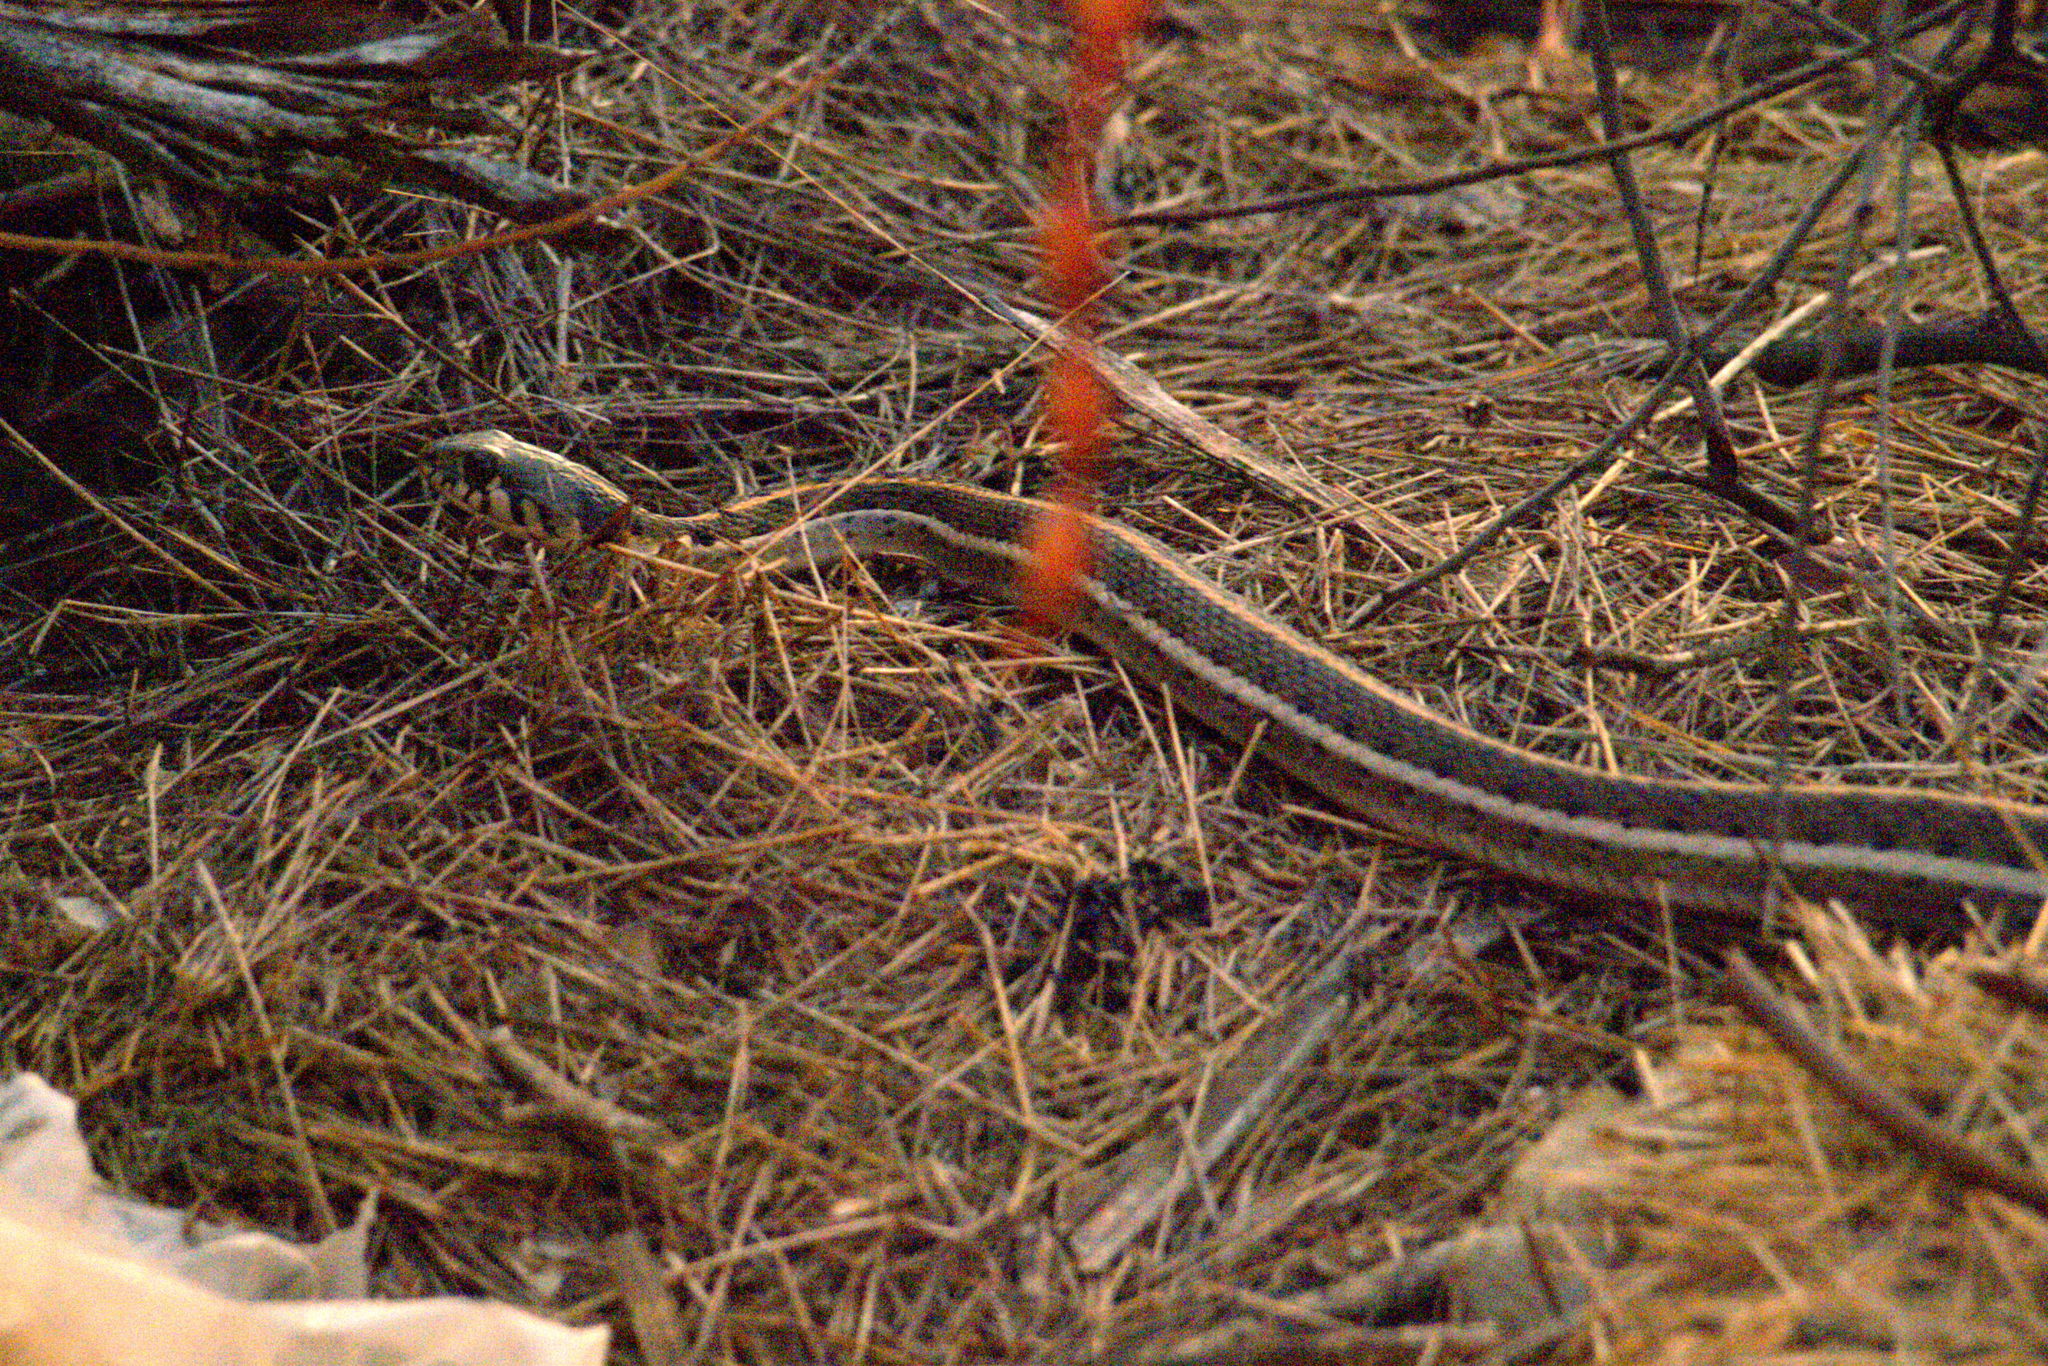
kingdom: Animalia
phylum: Chordata
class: Squamata
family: Colubridae
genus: Thamnophis
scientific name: Thamnophis cyrtopsis
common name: Black-necked gartersnake
